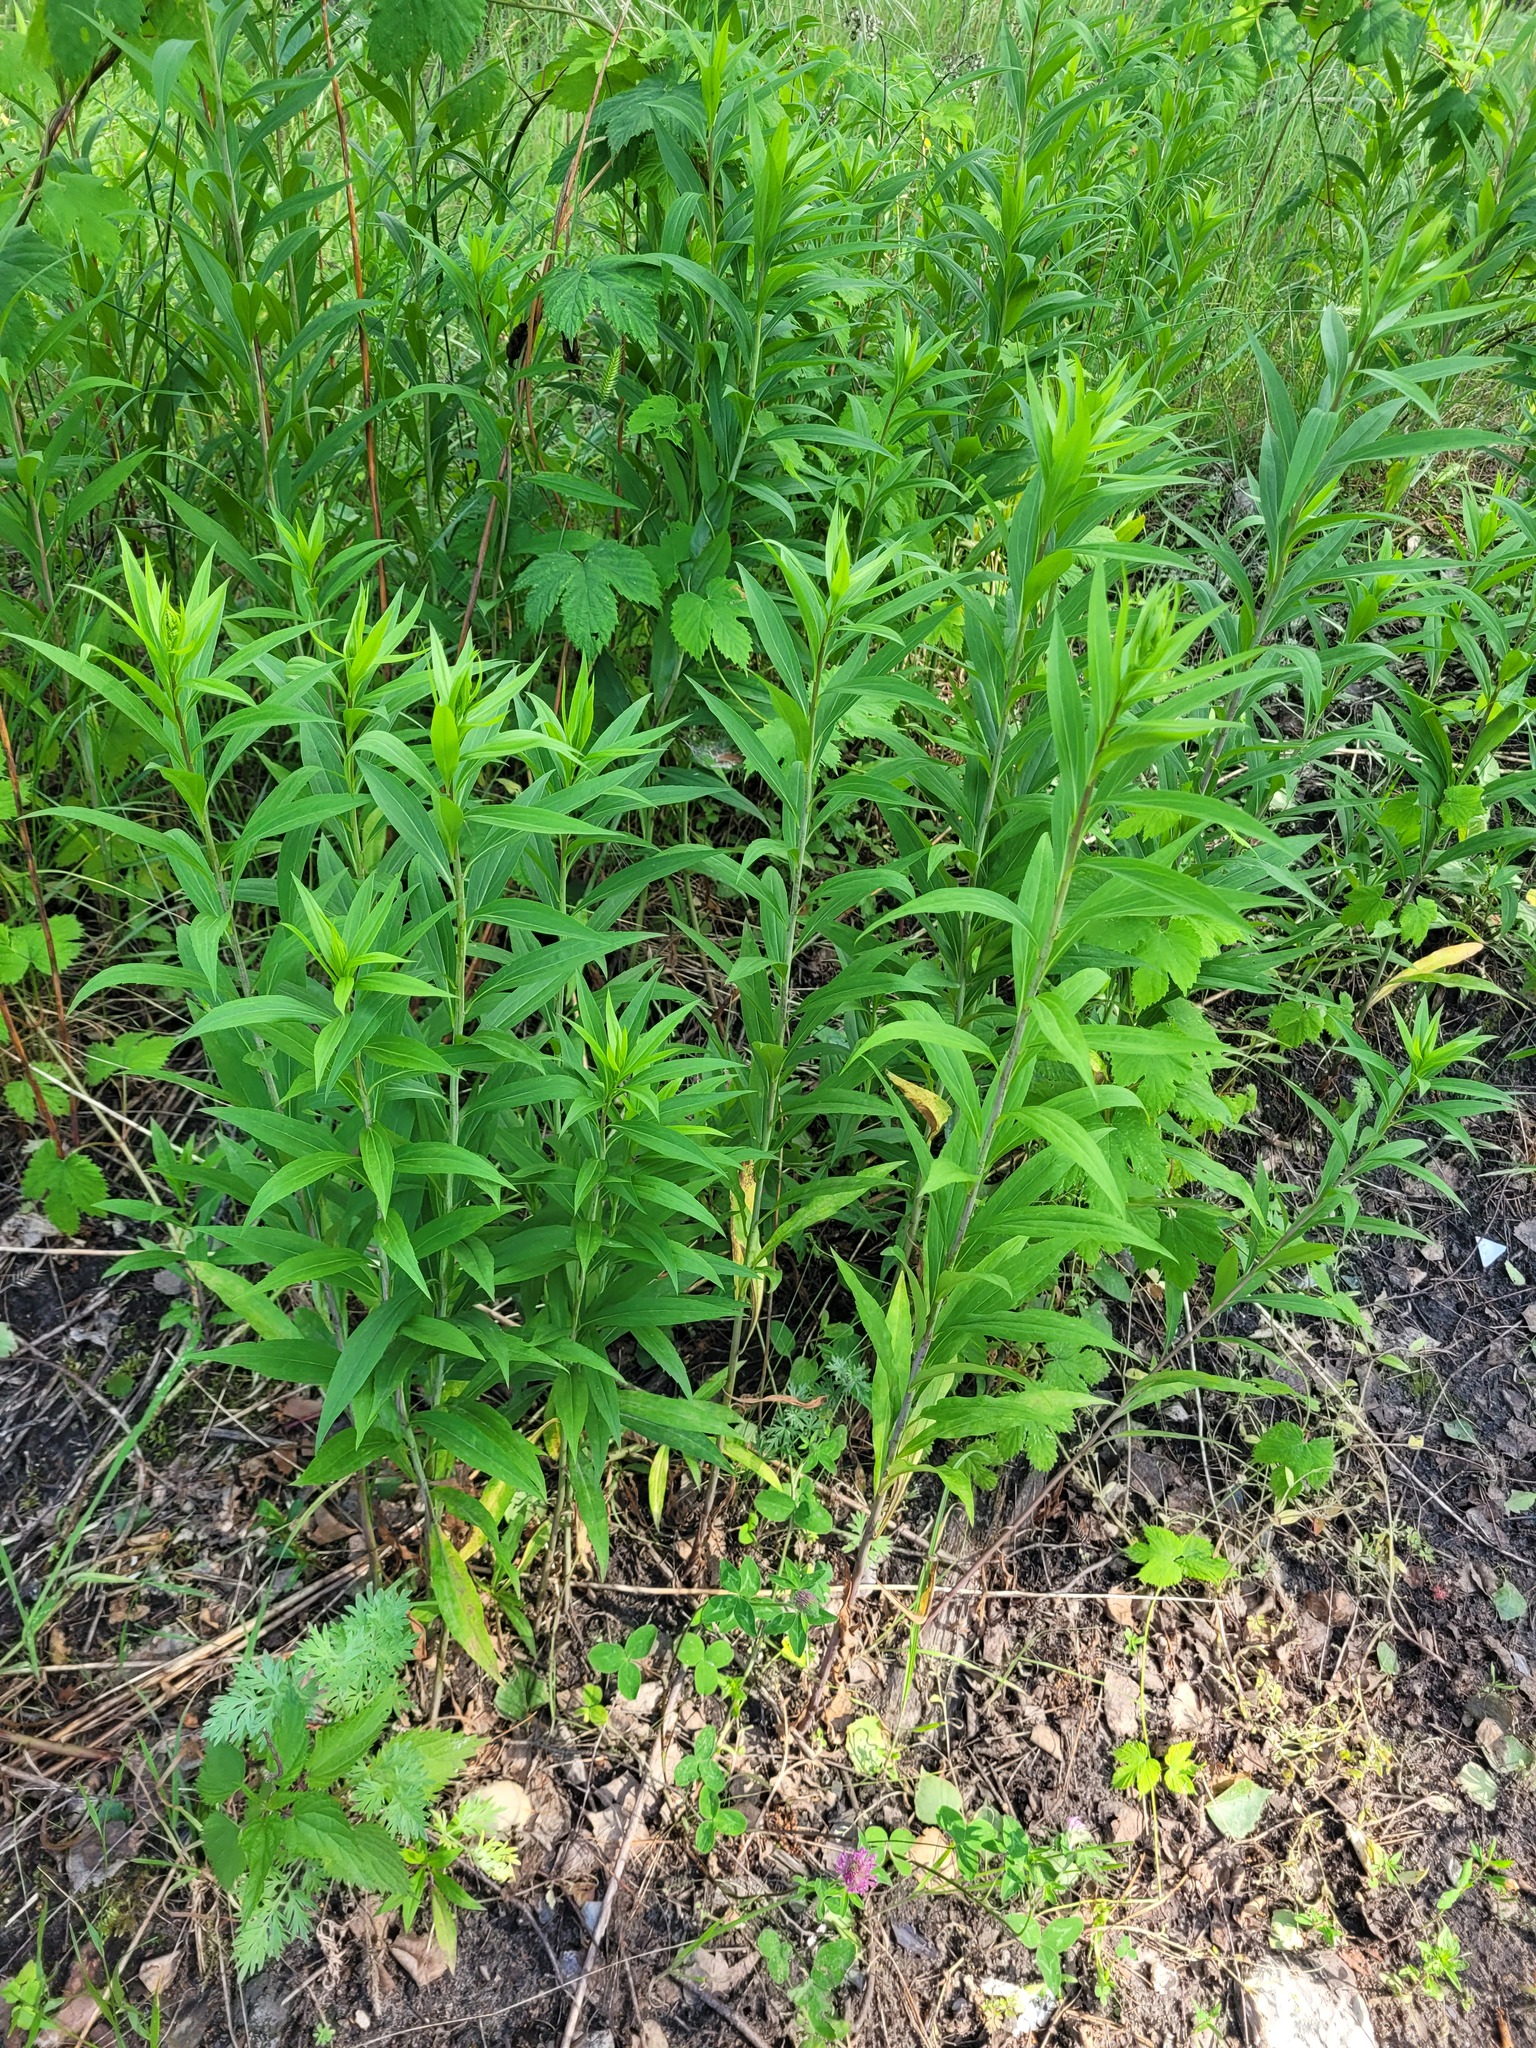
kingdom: Plantae
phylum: Tracheophyta
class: Magnoliopsida
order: Asterales
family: Asteraceae
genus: Solidago
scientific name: Solidago gigantea
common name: Giant goldenrod
